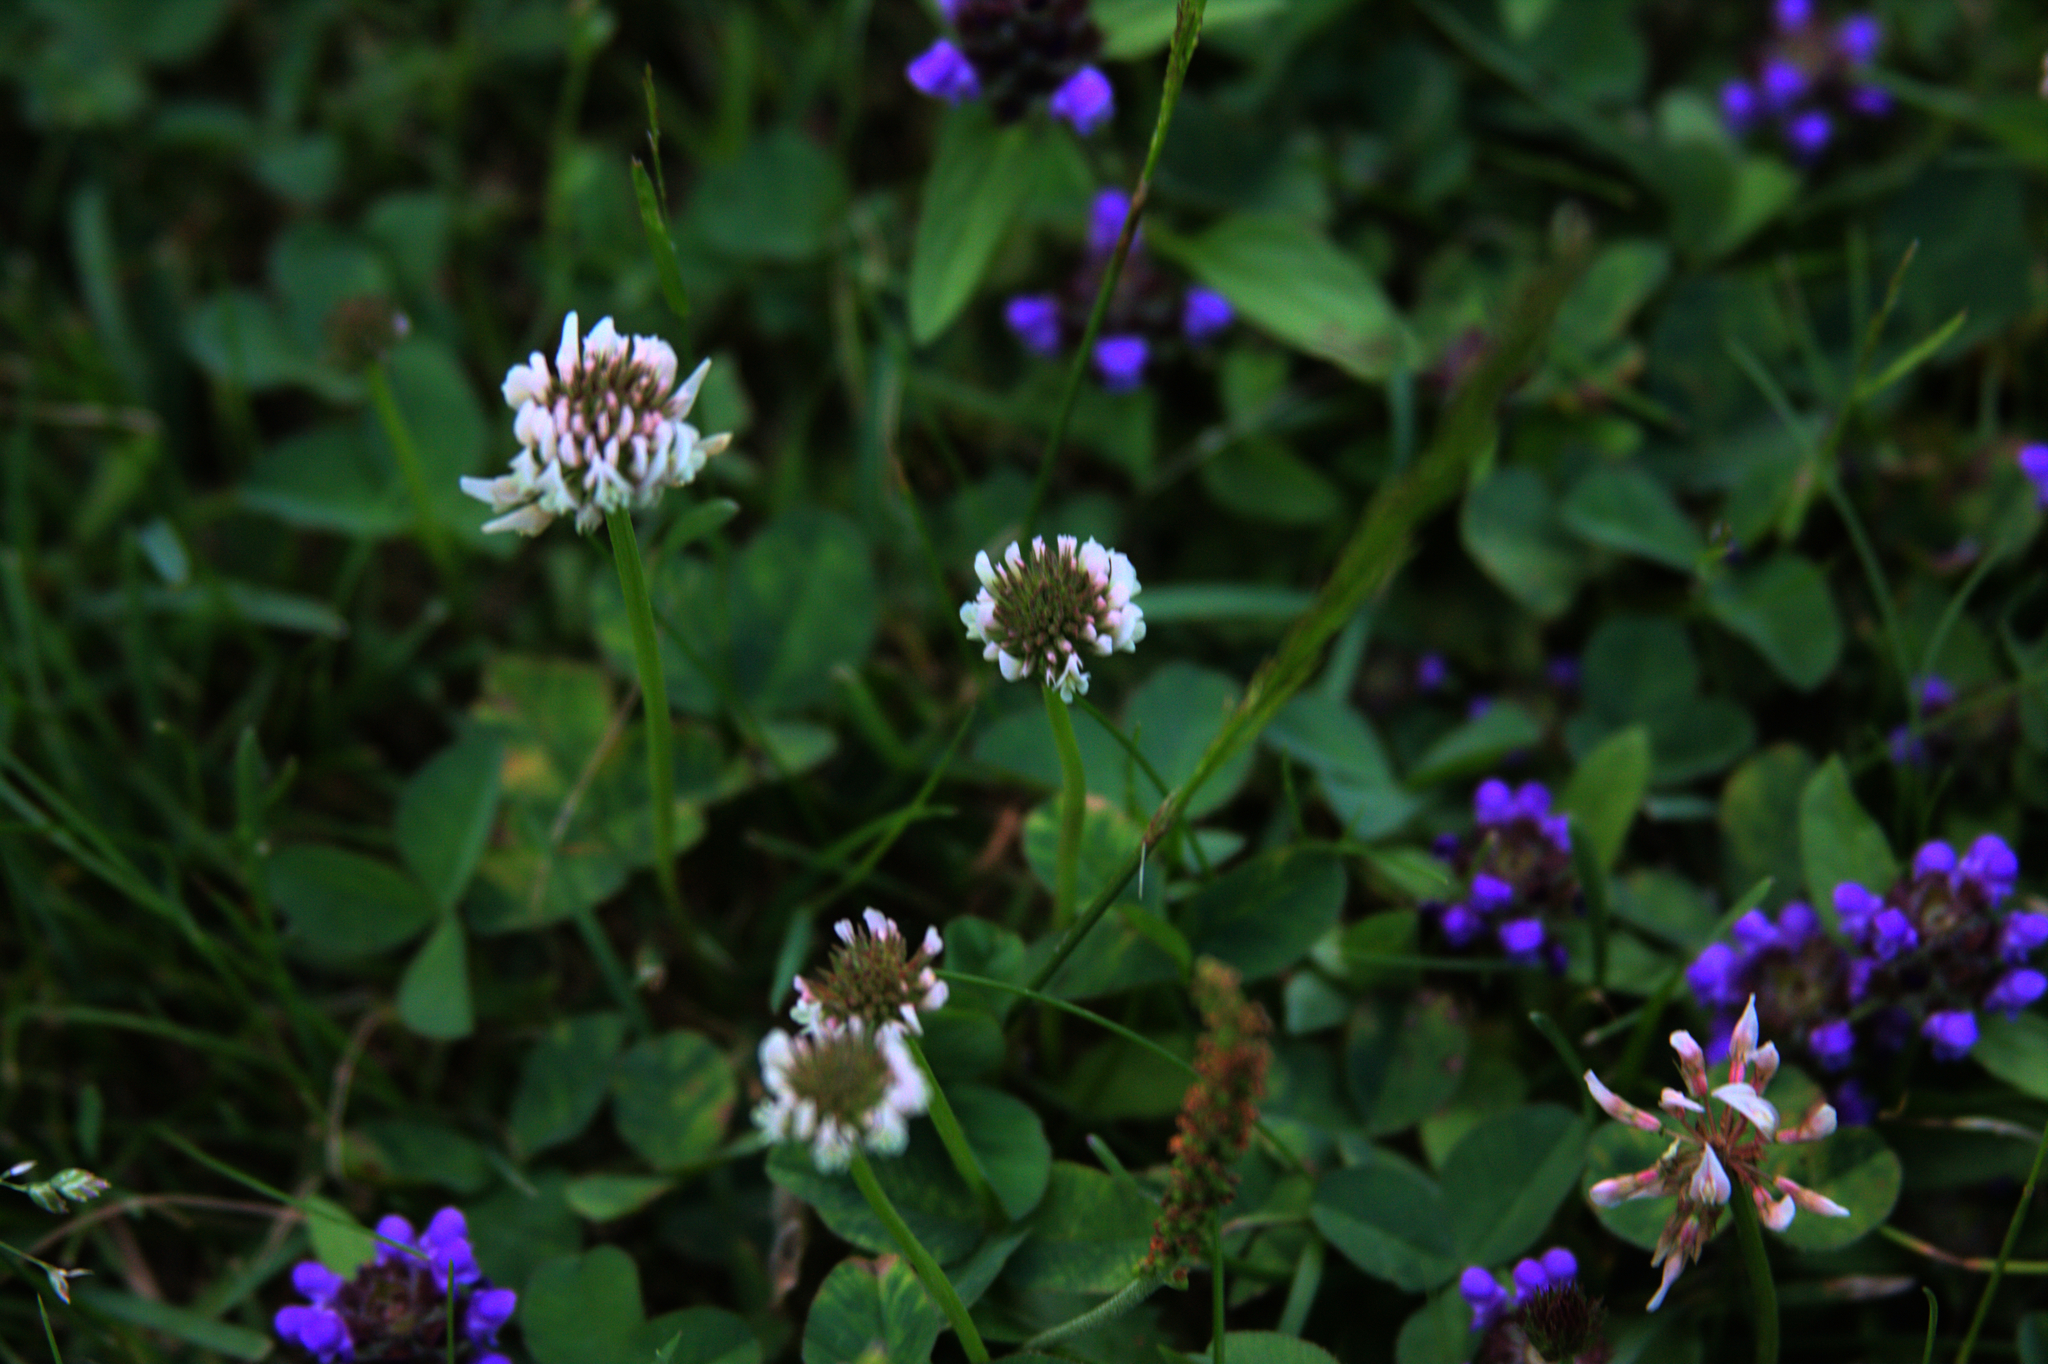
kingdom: Plantae
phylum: Tracheophyta
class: Magnoliopsida
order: Fabales
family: Fabaceae
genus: Trifolium
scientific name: Trifolium repens
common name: White clover
